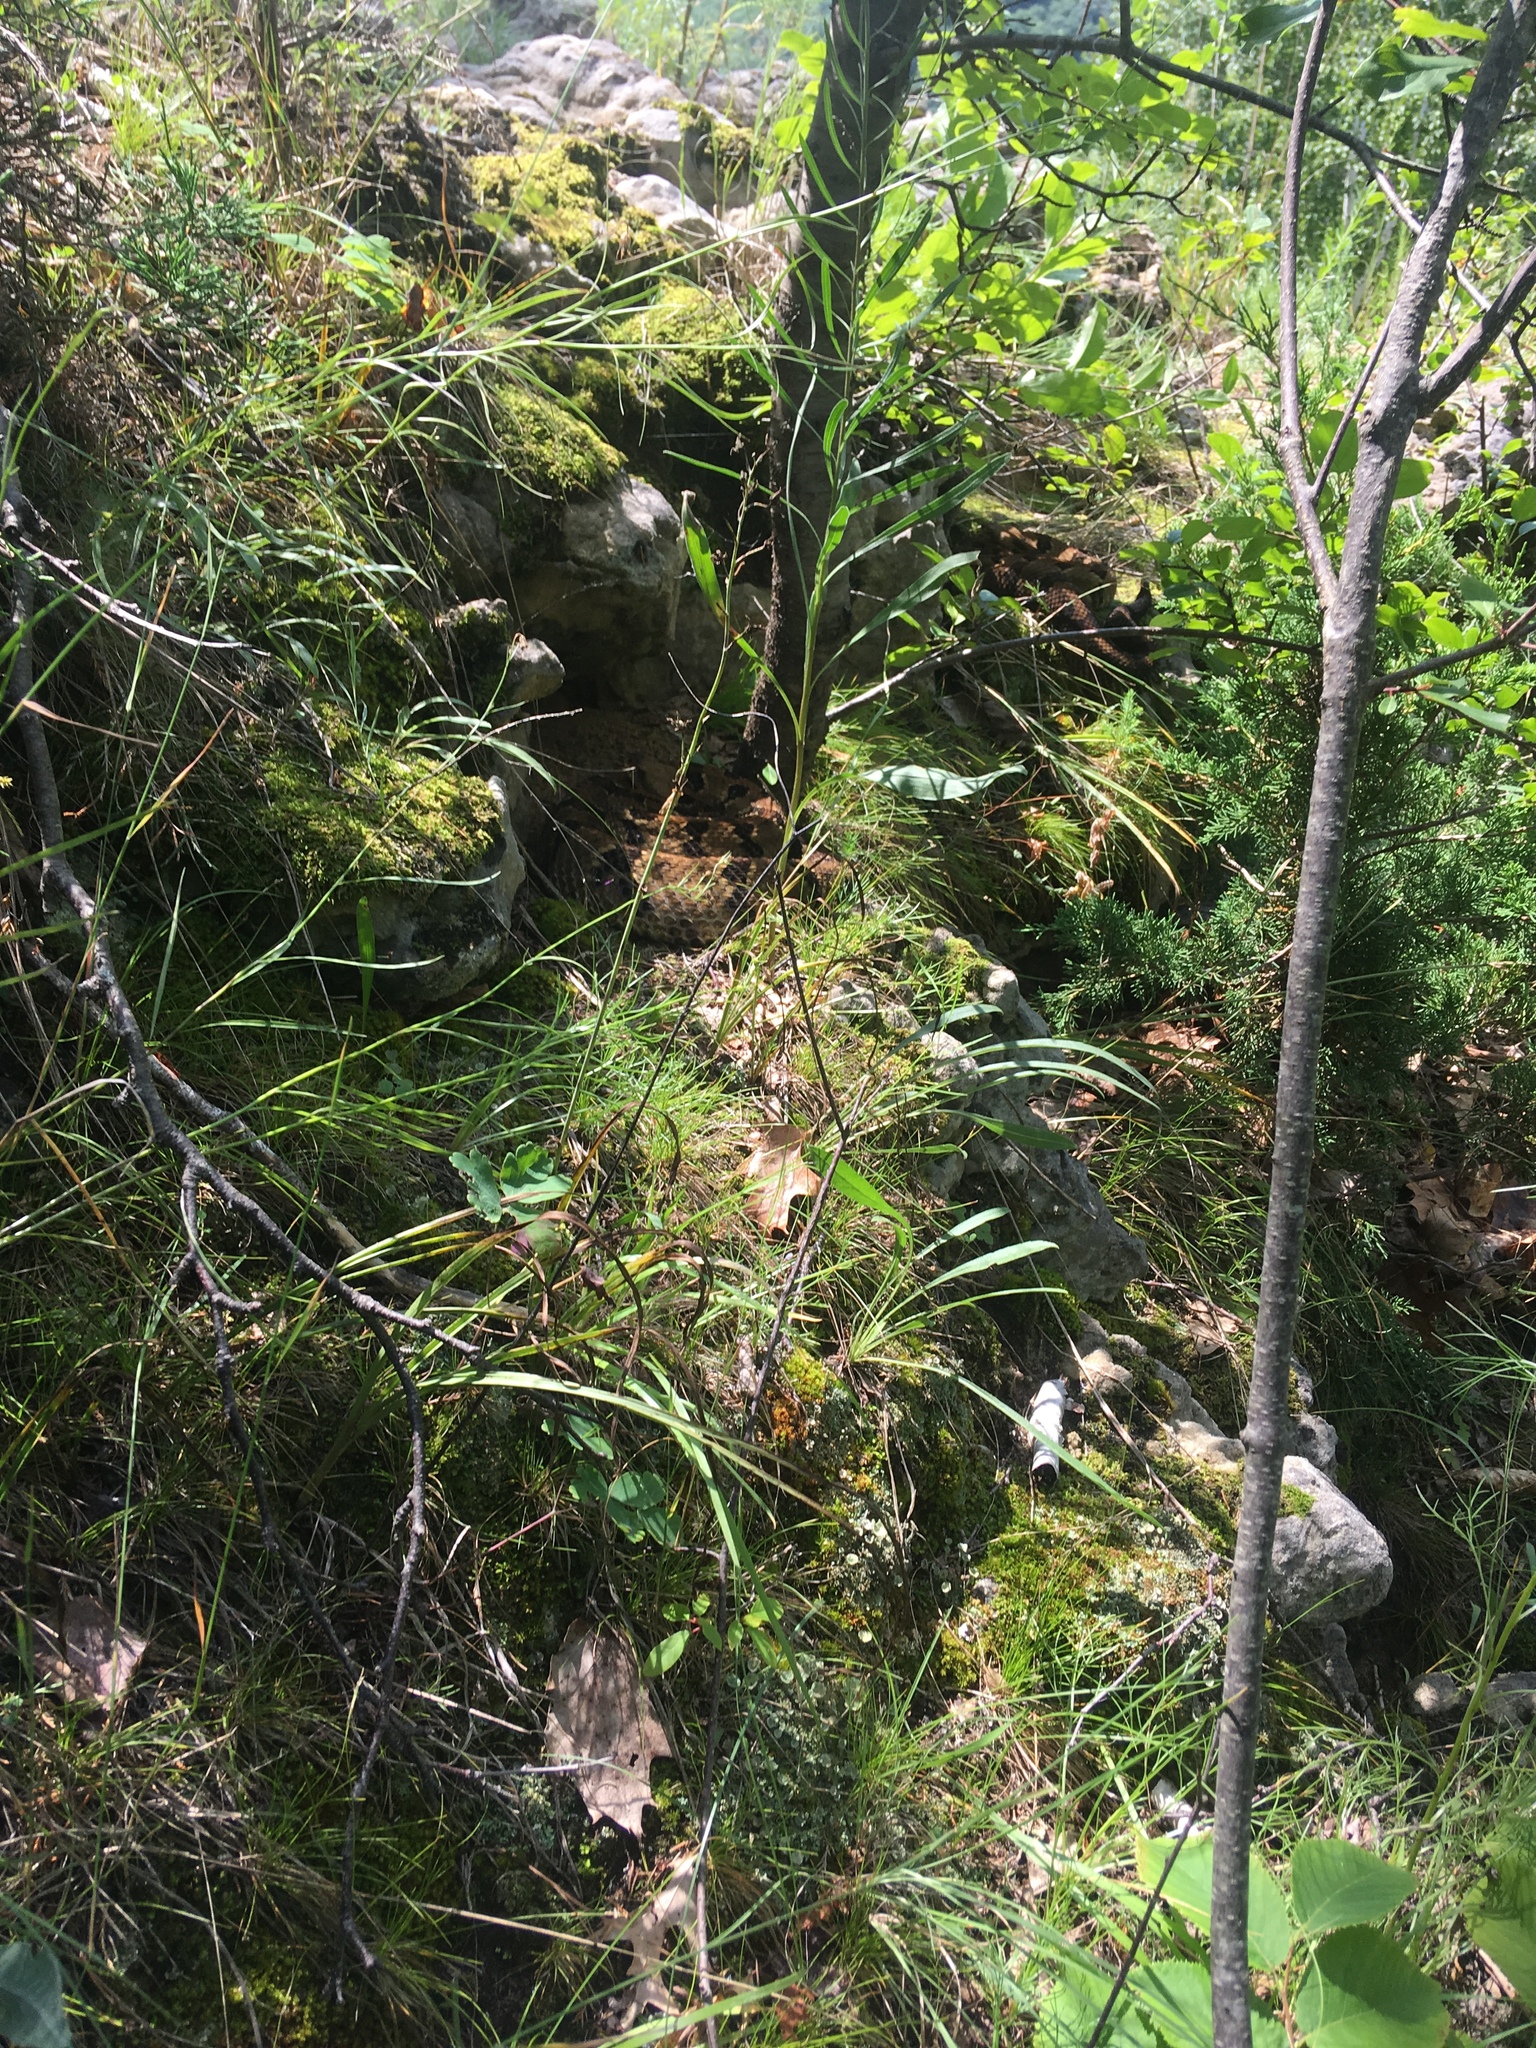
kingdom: Animalia
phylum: Chordata
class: Squamata
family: Viperidae
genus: Crotalus
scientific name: Crotalus horridus
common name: Timber rattlesnake
